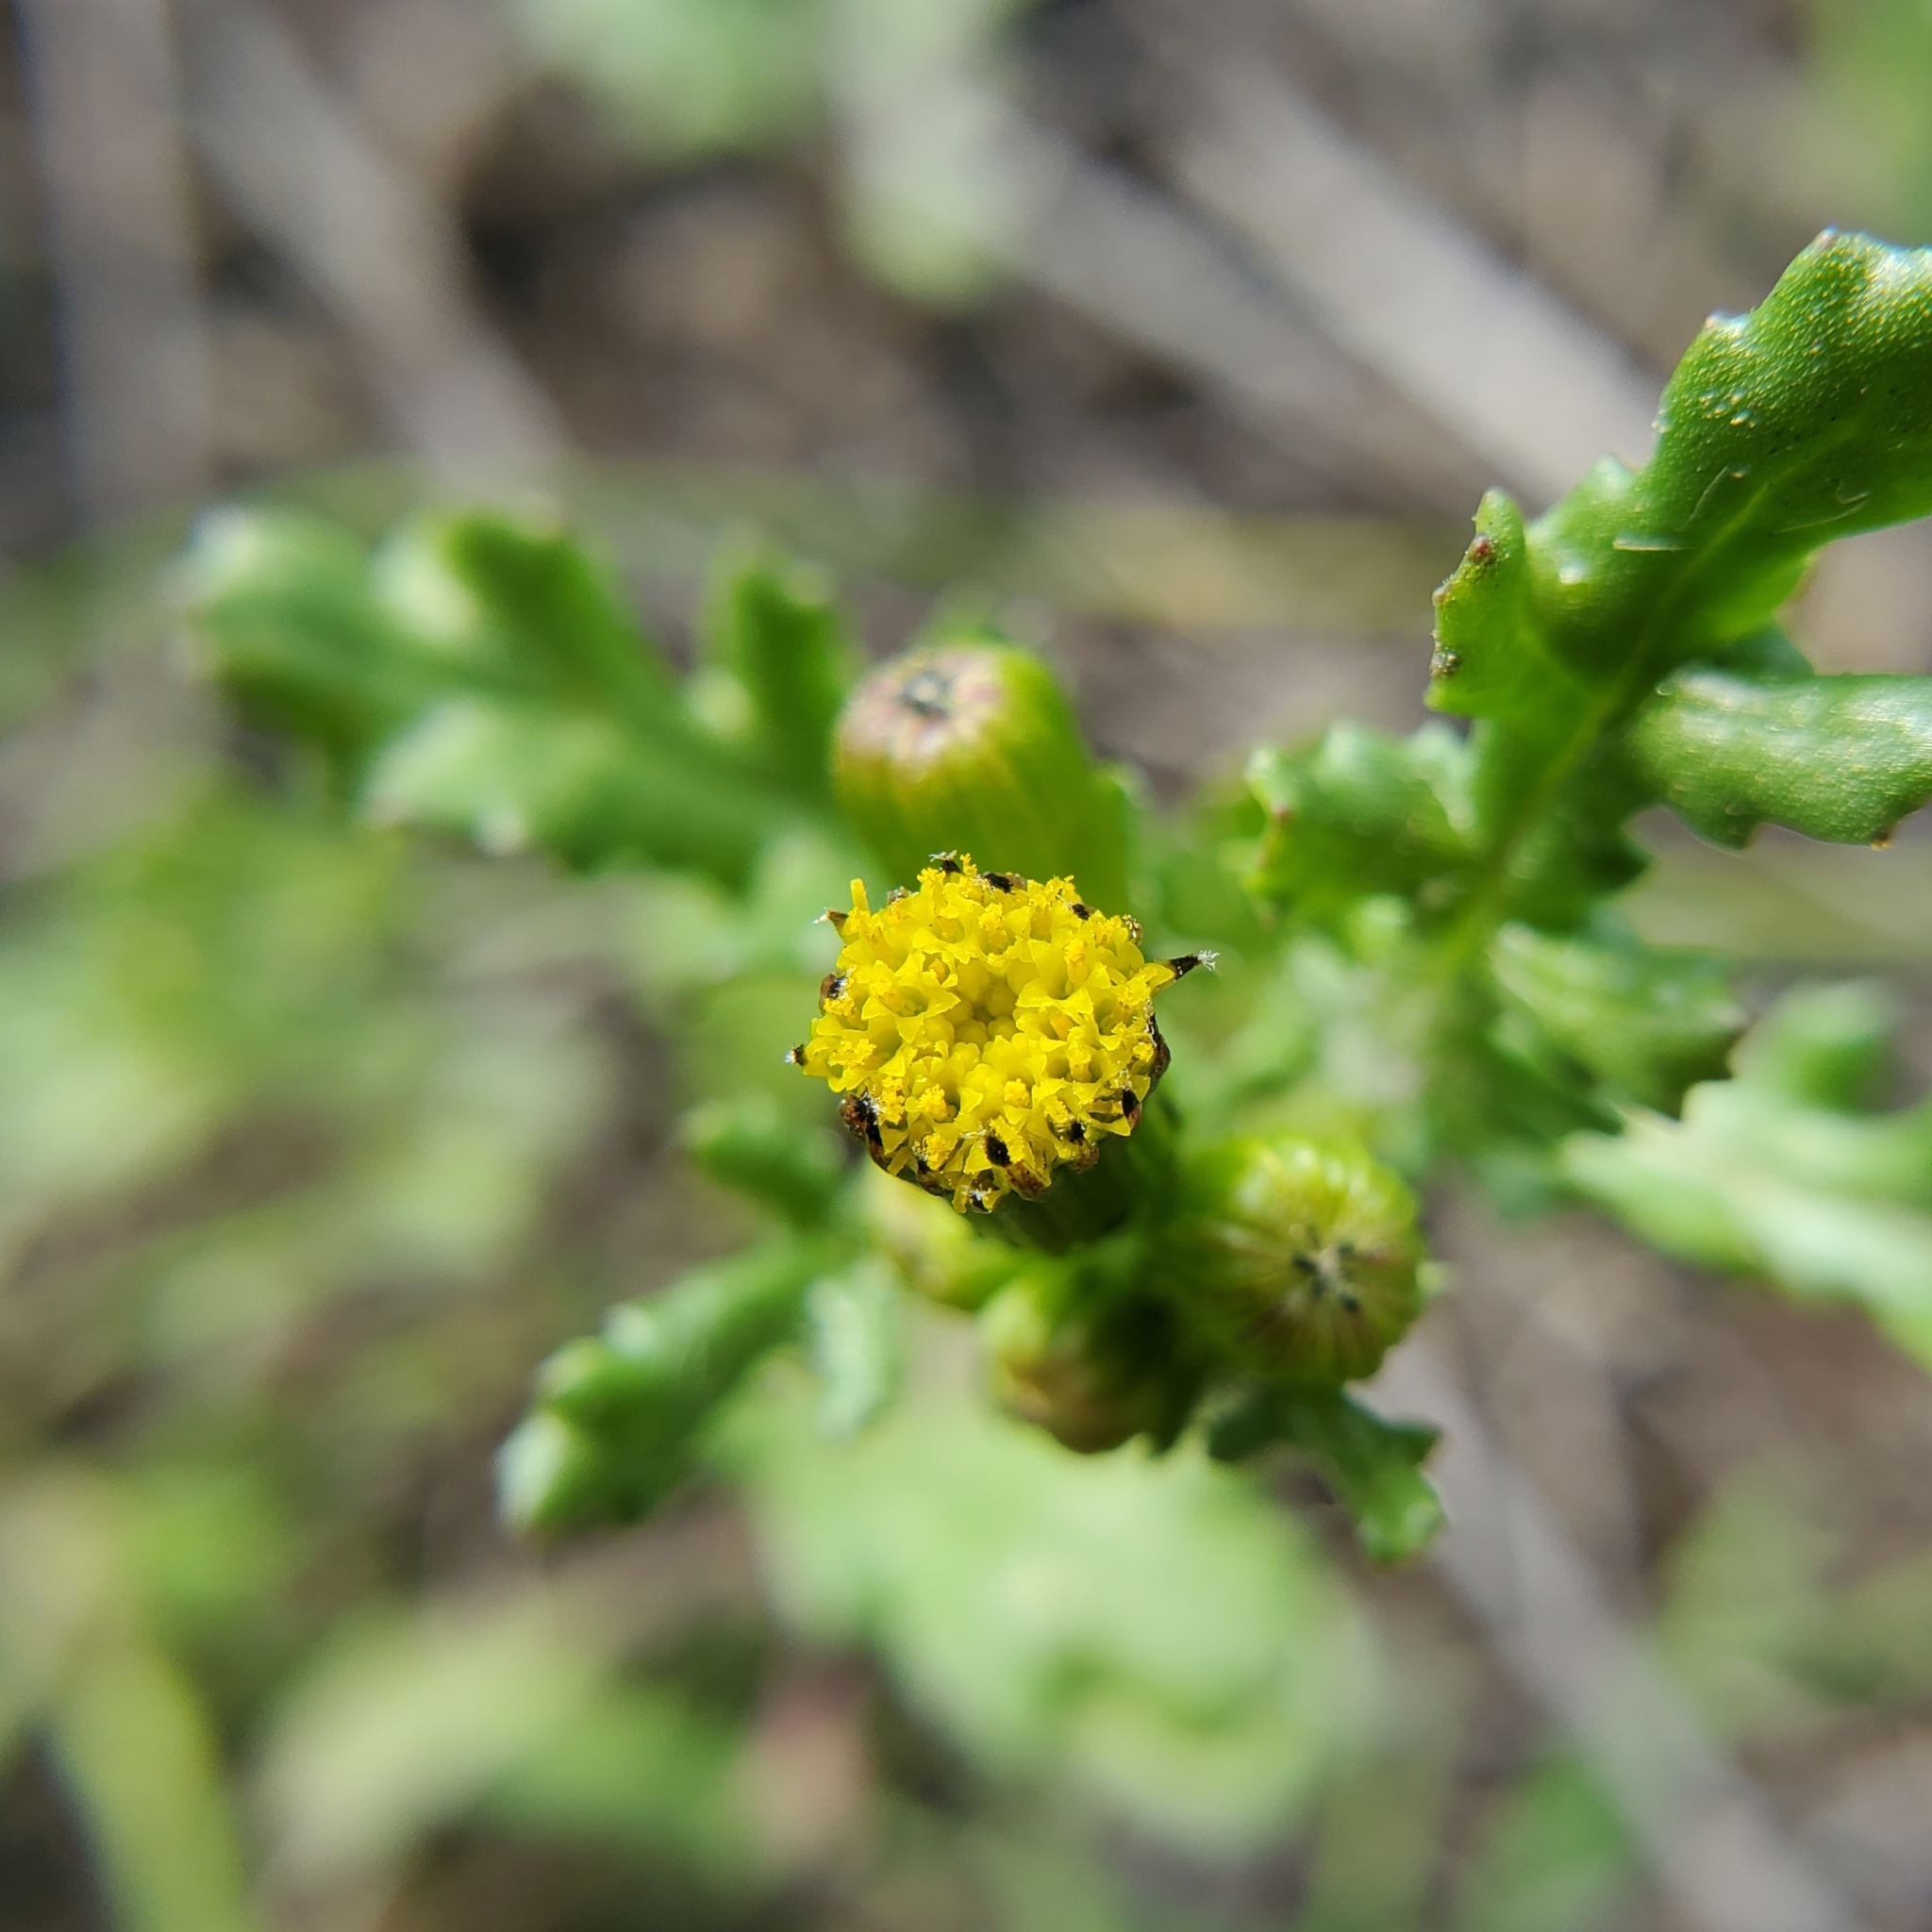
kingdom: Plantae
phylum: Tracheophyta
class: Magnoliopsida
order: Asterales
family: Asteraceae
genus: Senecio
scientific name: Senecio vulgaris
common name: Old-man-in-the-spring
